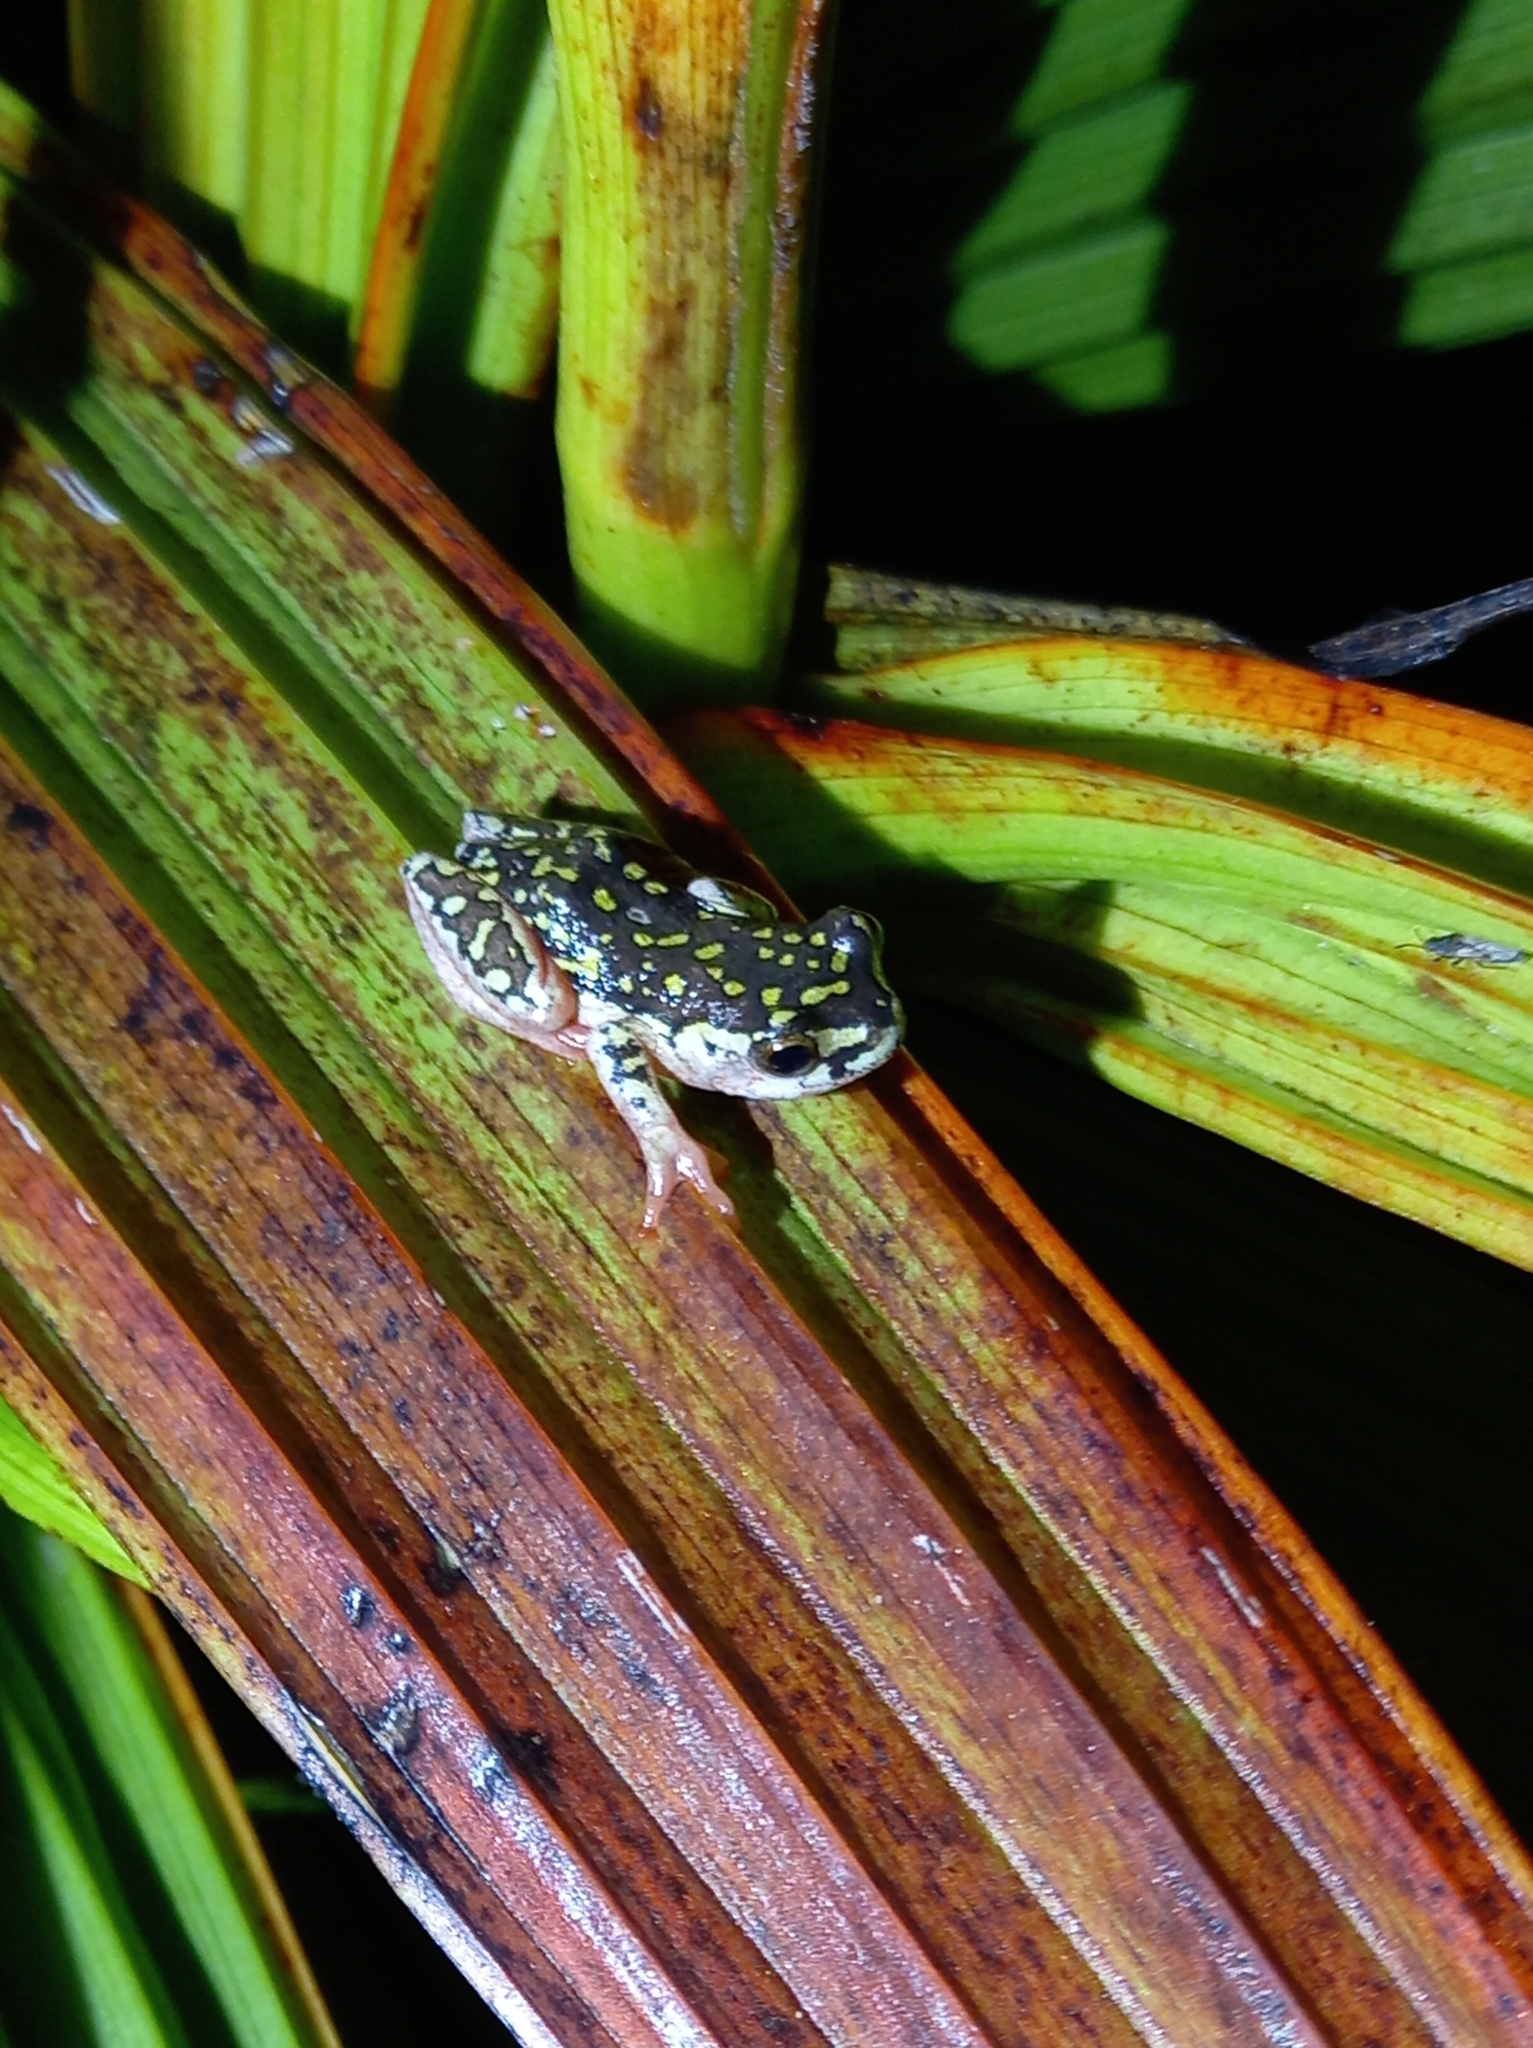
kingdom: Animalia
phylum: Chordata
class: Amphibia
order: Anura
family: Hyperoliidae
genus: Hyperolius
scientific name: Hyperolius marmoratus
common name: Painted reed frog
